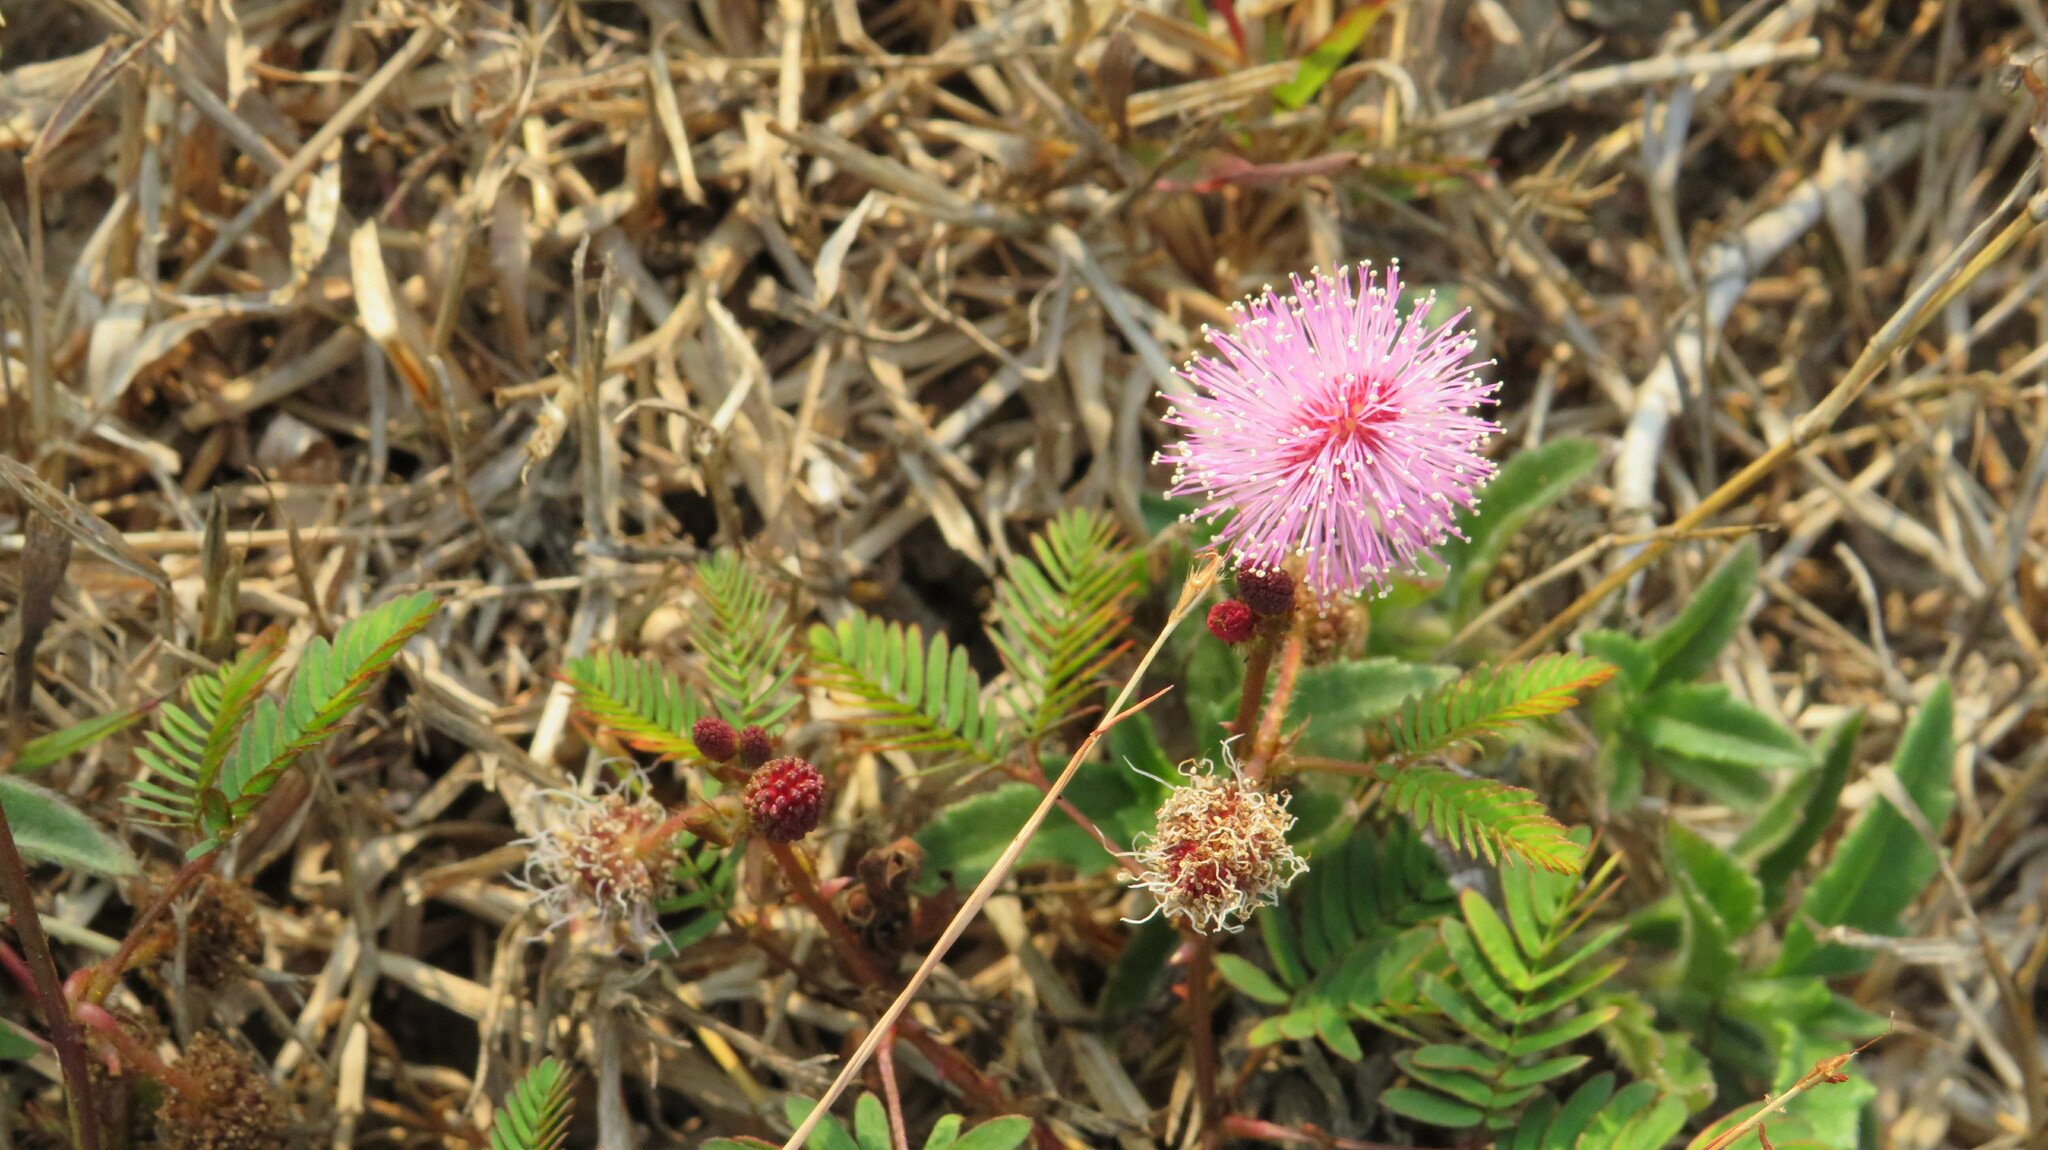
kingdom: Plantae
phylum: Tracheophyta
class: Magnoliopsida
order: Fabales
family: Fabaceae
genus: Mimosa
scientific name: Mimosa pudica
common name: Sensitive plant
